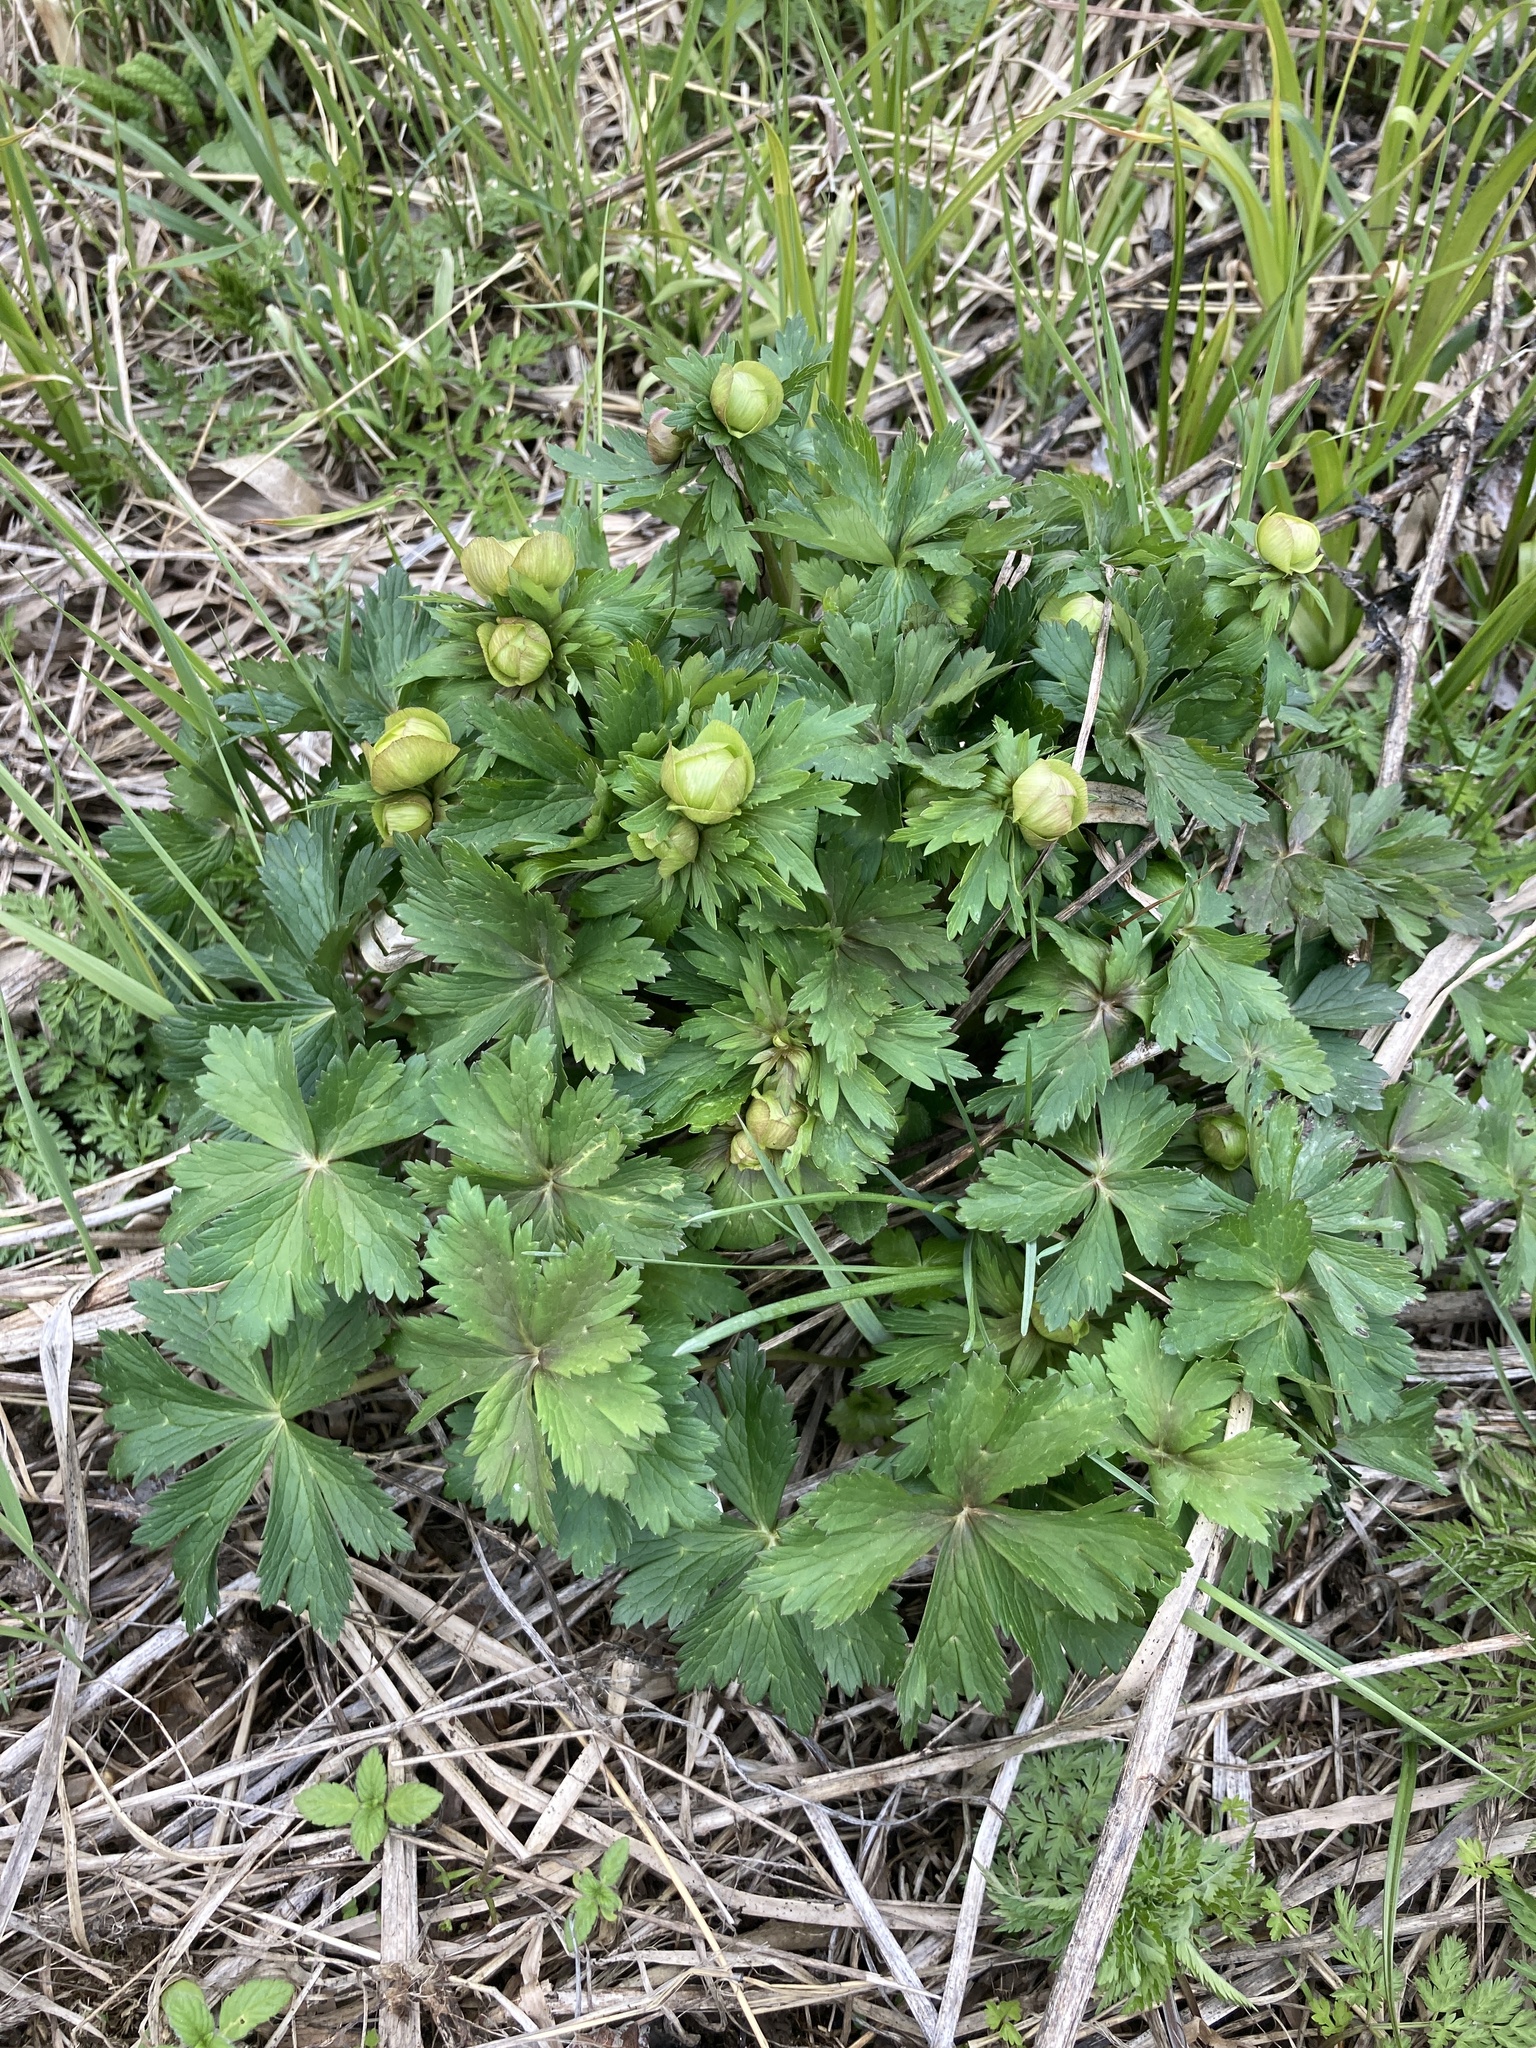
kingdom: Plantae
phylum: Tracheophyta
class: Magnoliopsida
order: Ranunculales
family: Ranunculaceae
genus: Trollius
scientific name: Trollius europaeus
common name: European globeflower
